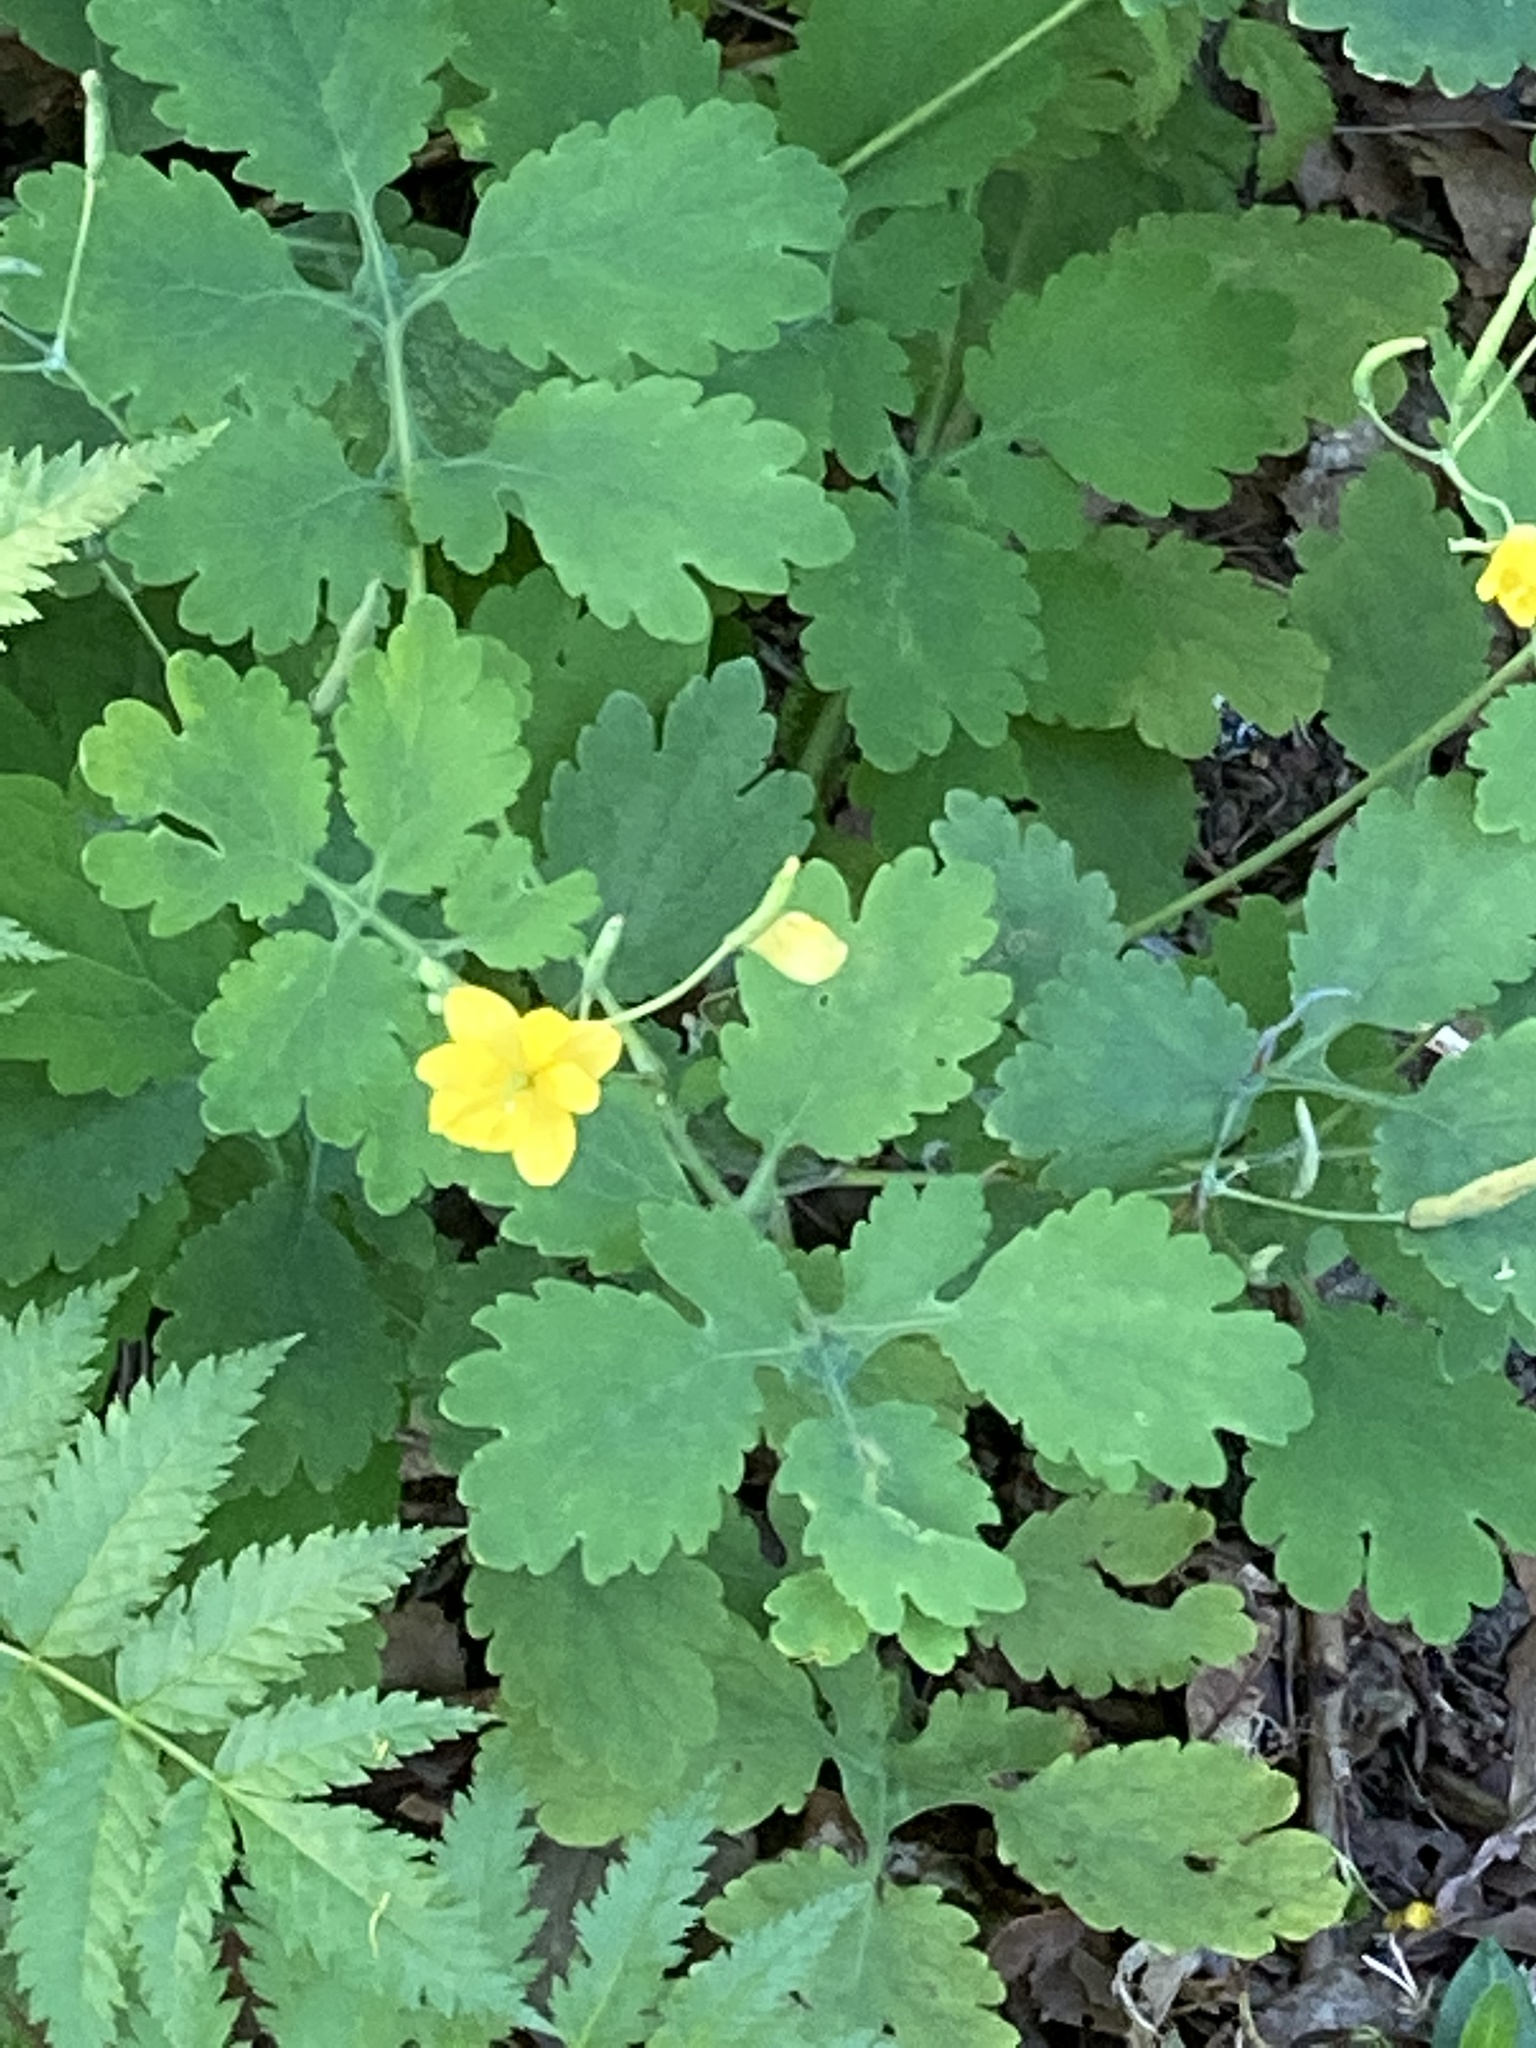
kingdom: Plantae
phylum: Tracheophyta
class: Magnoliopsida
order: Ranunculales
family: Papaveraceae
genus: Chelidonium
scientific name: Chelidonium majus
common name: Greater celandine
